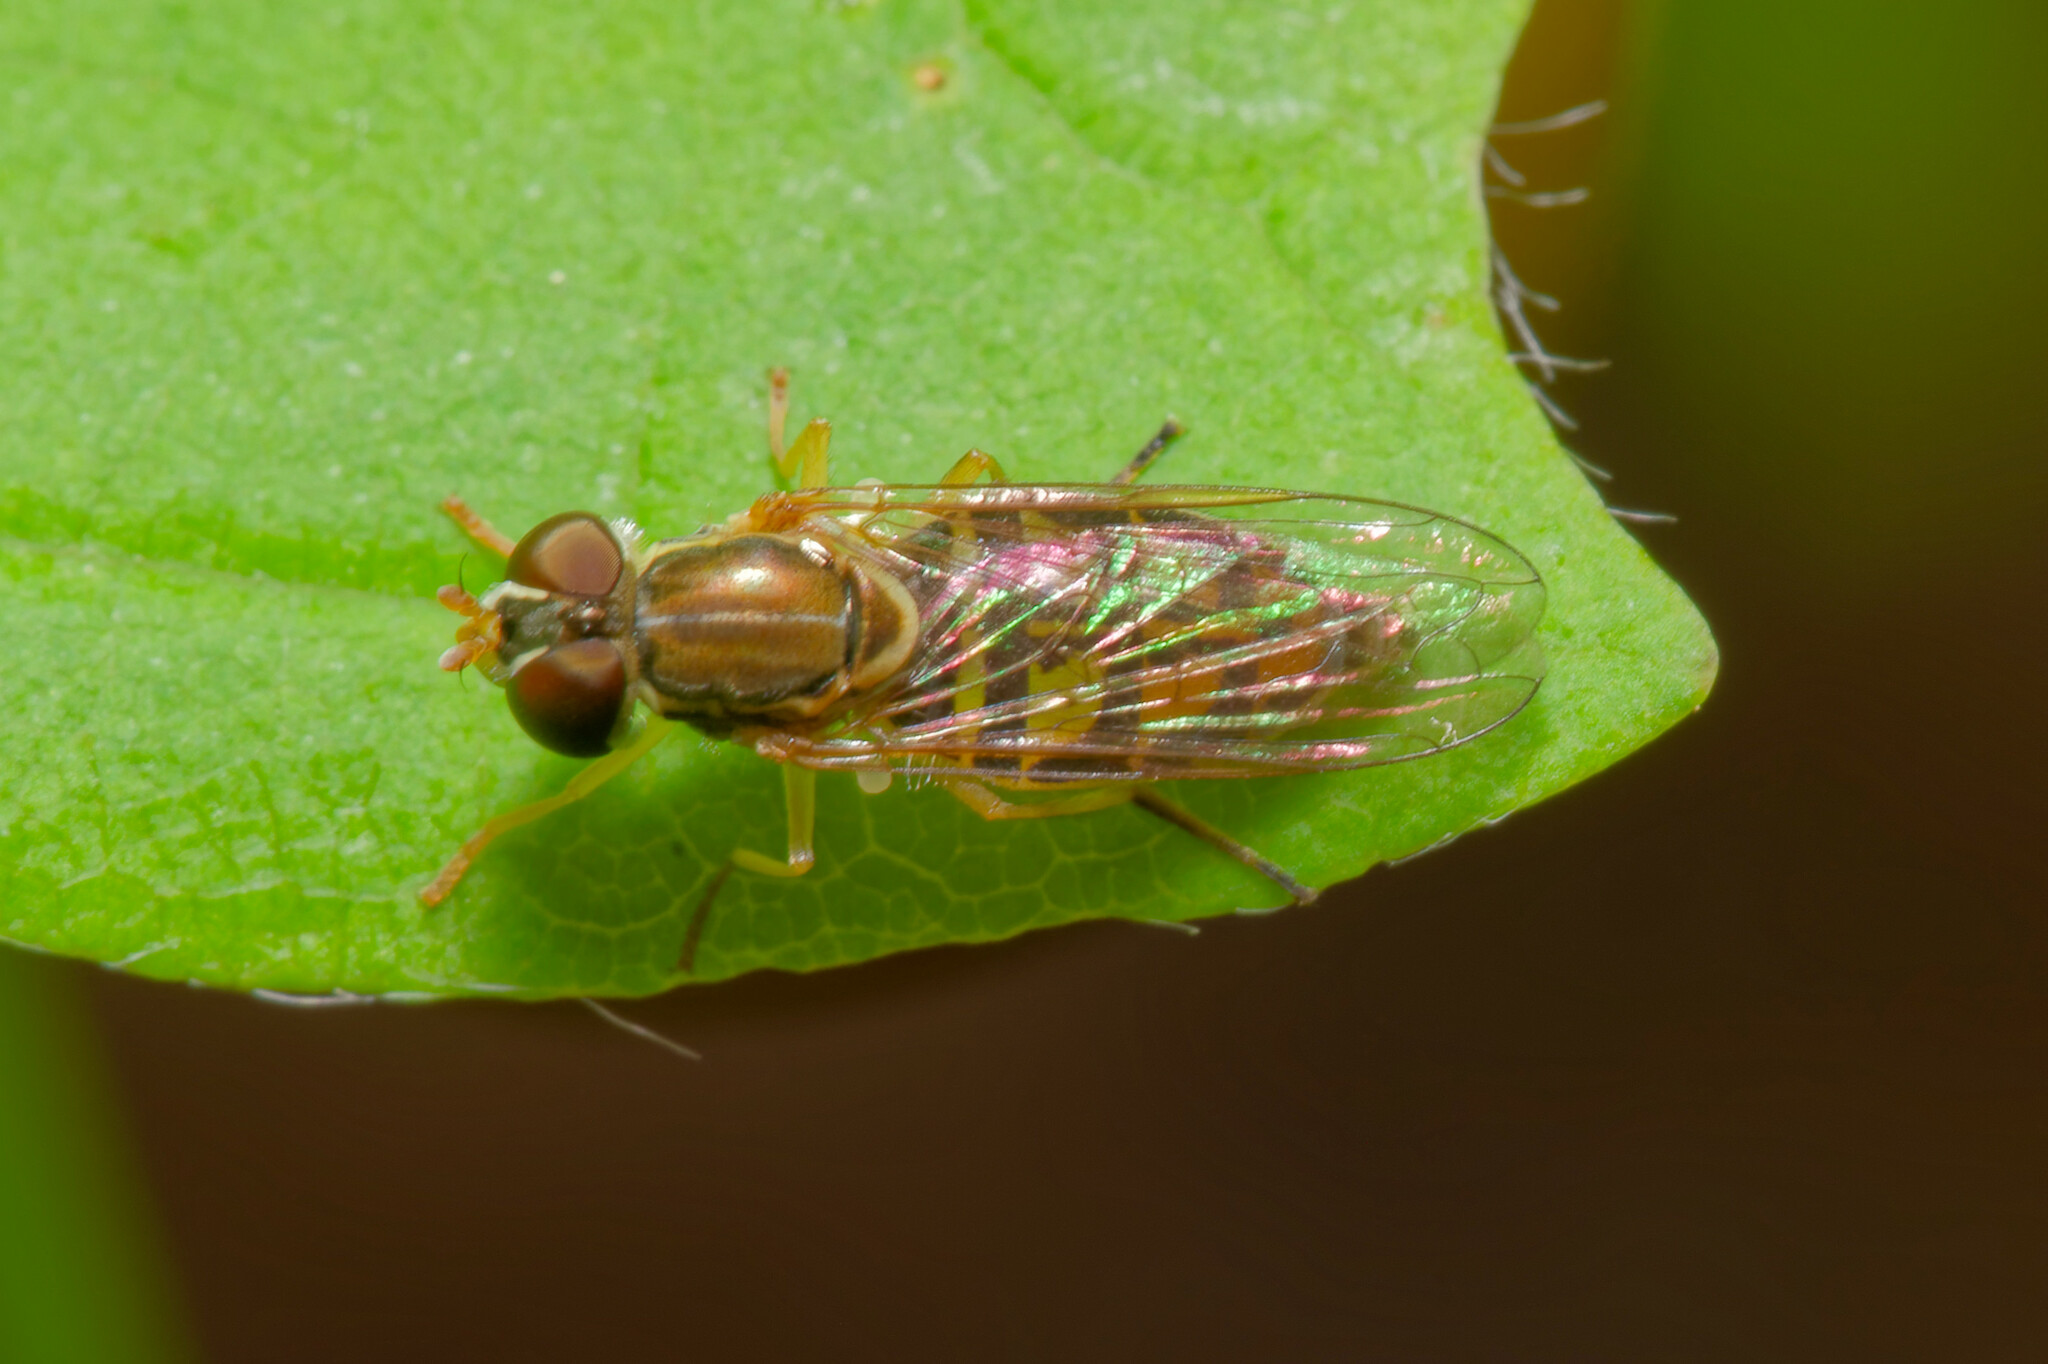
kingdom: Animalia
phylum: Arthropoda
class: Insecta
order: Diptera
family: Syrphidae
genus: Toxomerus
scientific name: Toxomerus marginatus
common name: Syrphid fly
